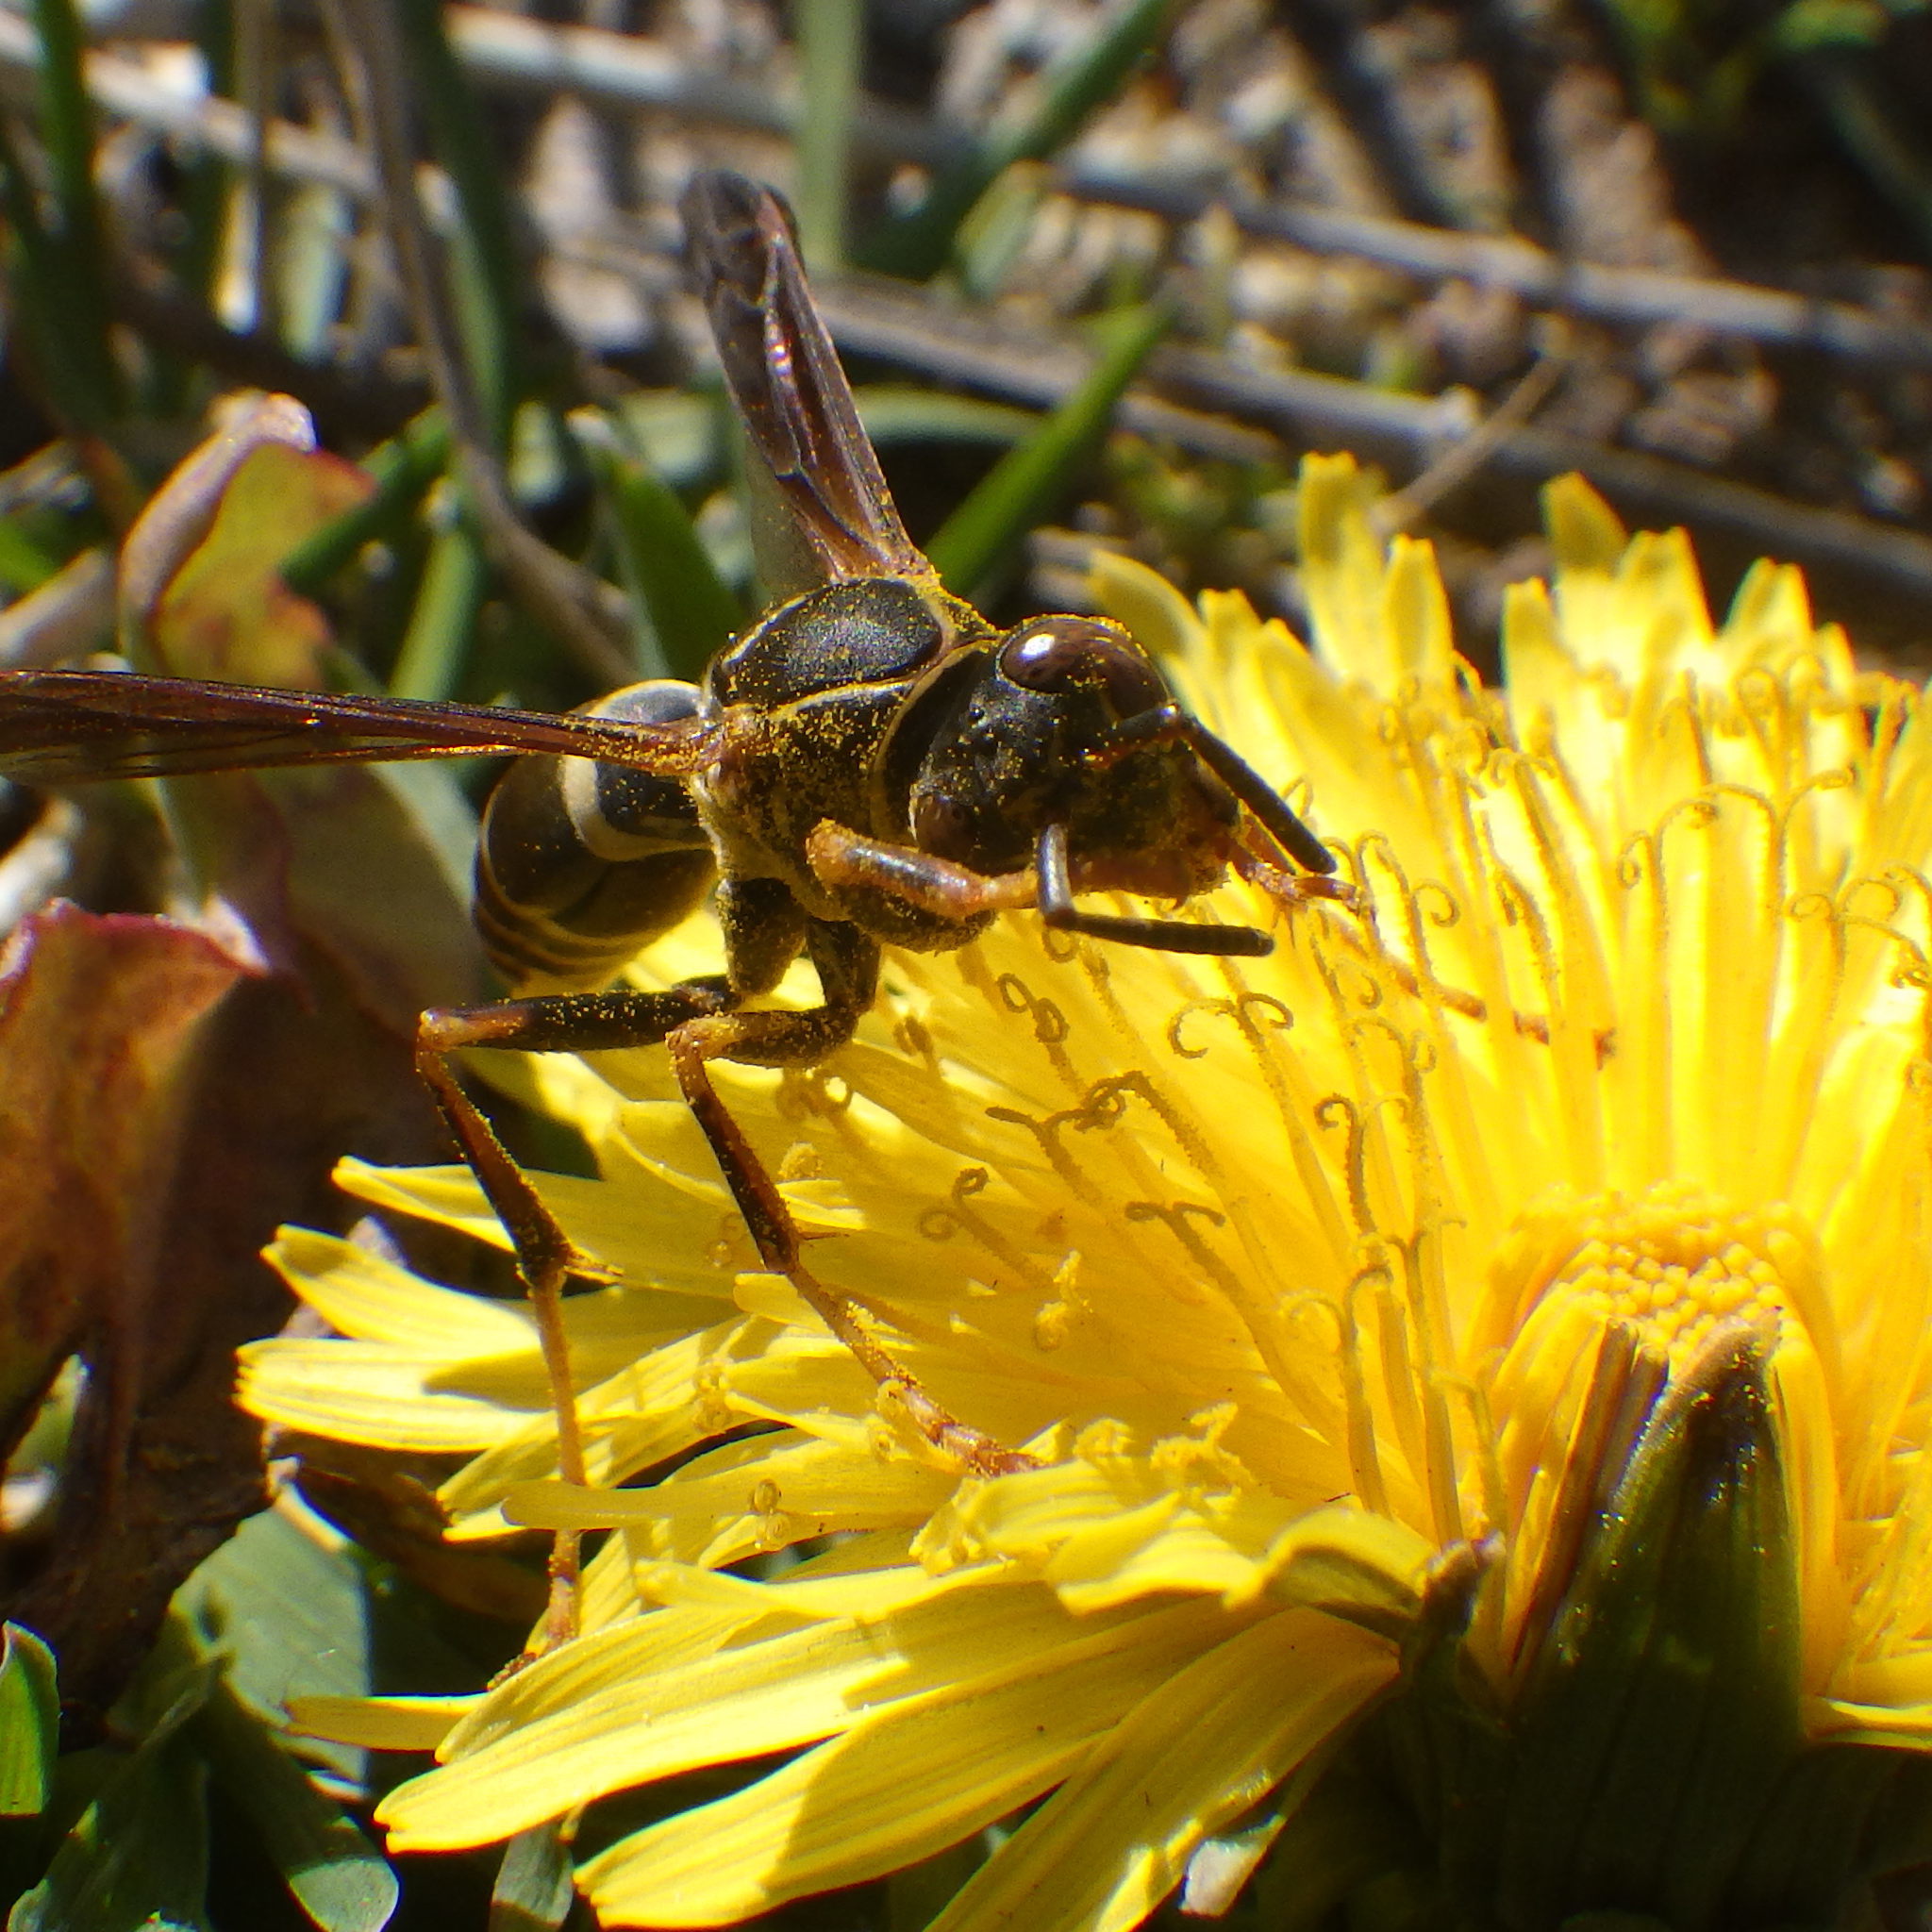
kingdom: Animalia
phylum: Arthropoda
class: Insecta
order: Hymenoptera
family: Eumenidae
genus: Polistes
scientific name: Polistes fuscatus
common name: Dark paper wasp
